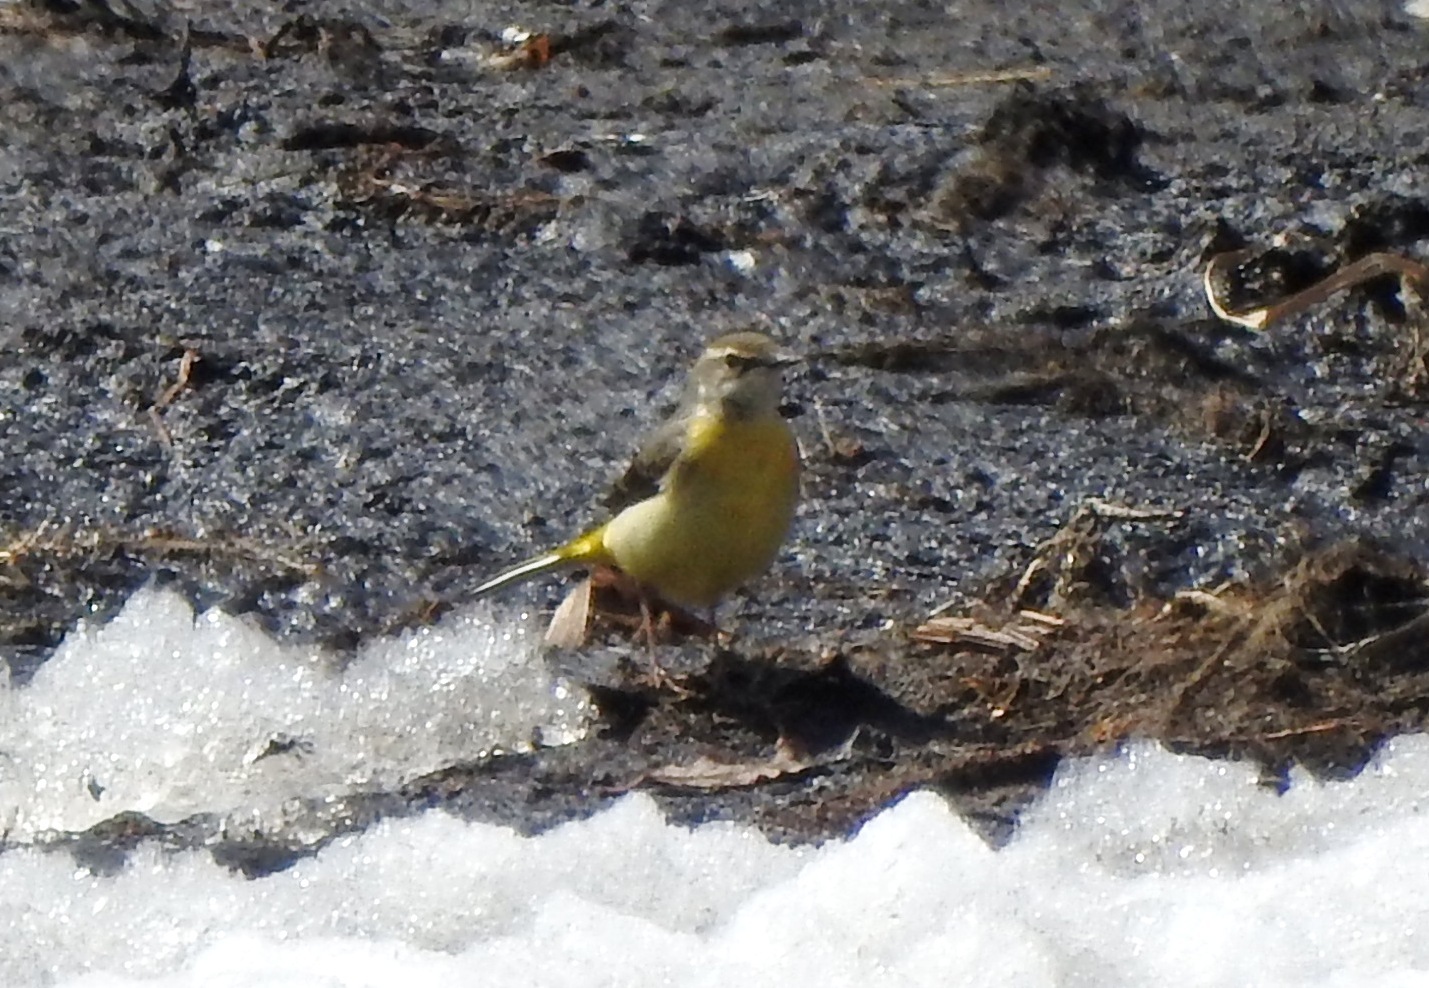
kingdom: Animalia
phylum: Chordata
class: Aves
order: Passeriformes
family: Motacillidae
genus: Motacilla
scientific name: Motacilla tschutschensis
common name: Eastern yellow wagtail
